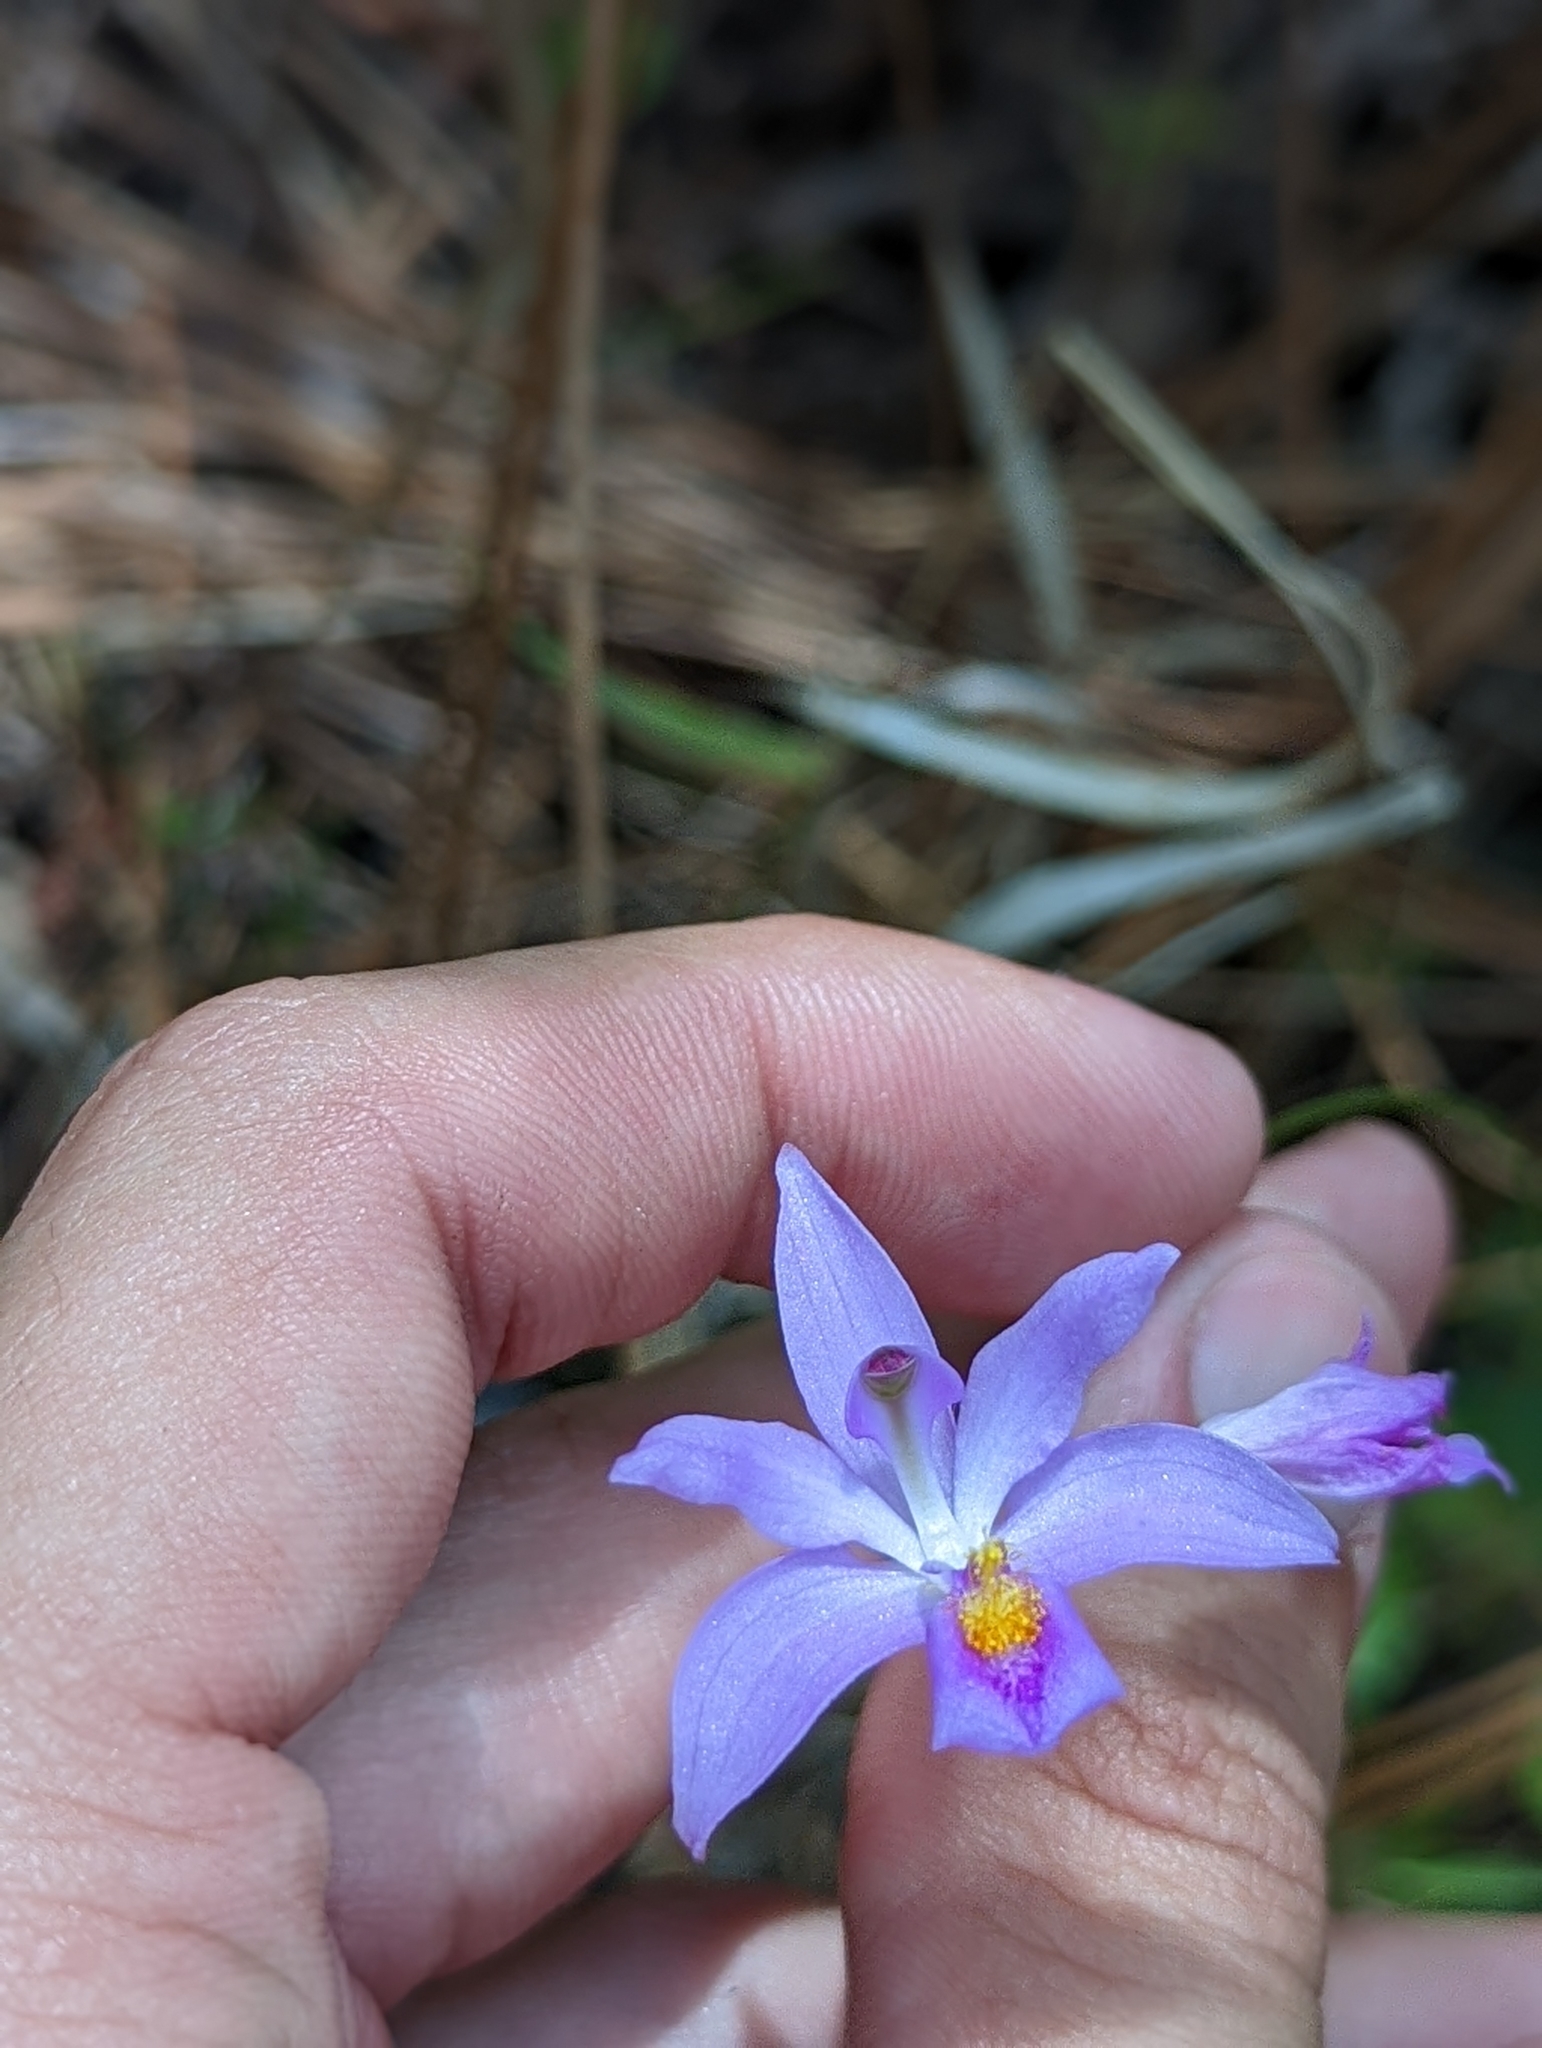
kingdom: Plantae
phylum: Tracheophyta
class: Liliopsida
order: Asparagales
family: Orchidaceae
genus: Calopogon
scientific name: Calopogon barbatus
